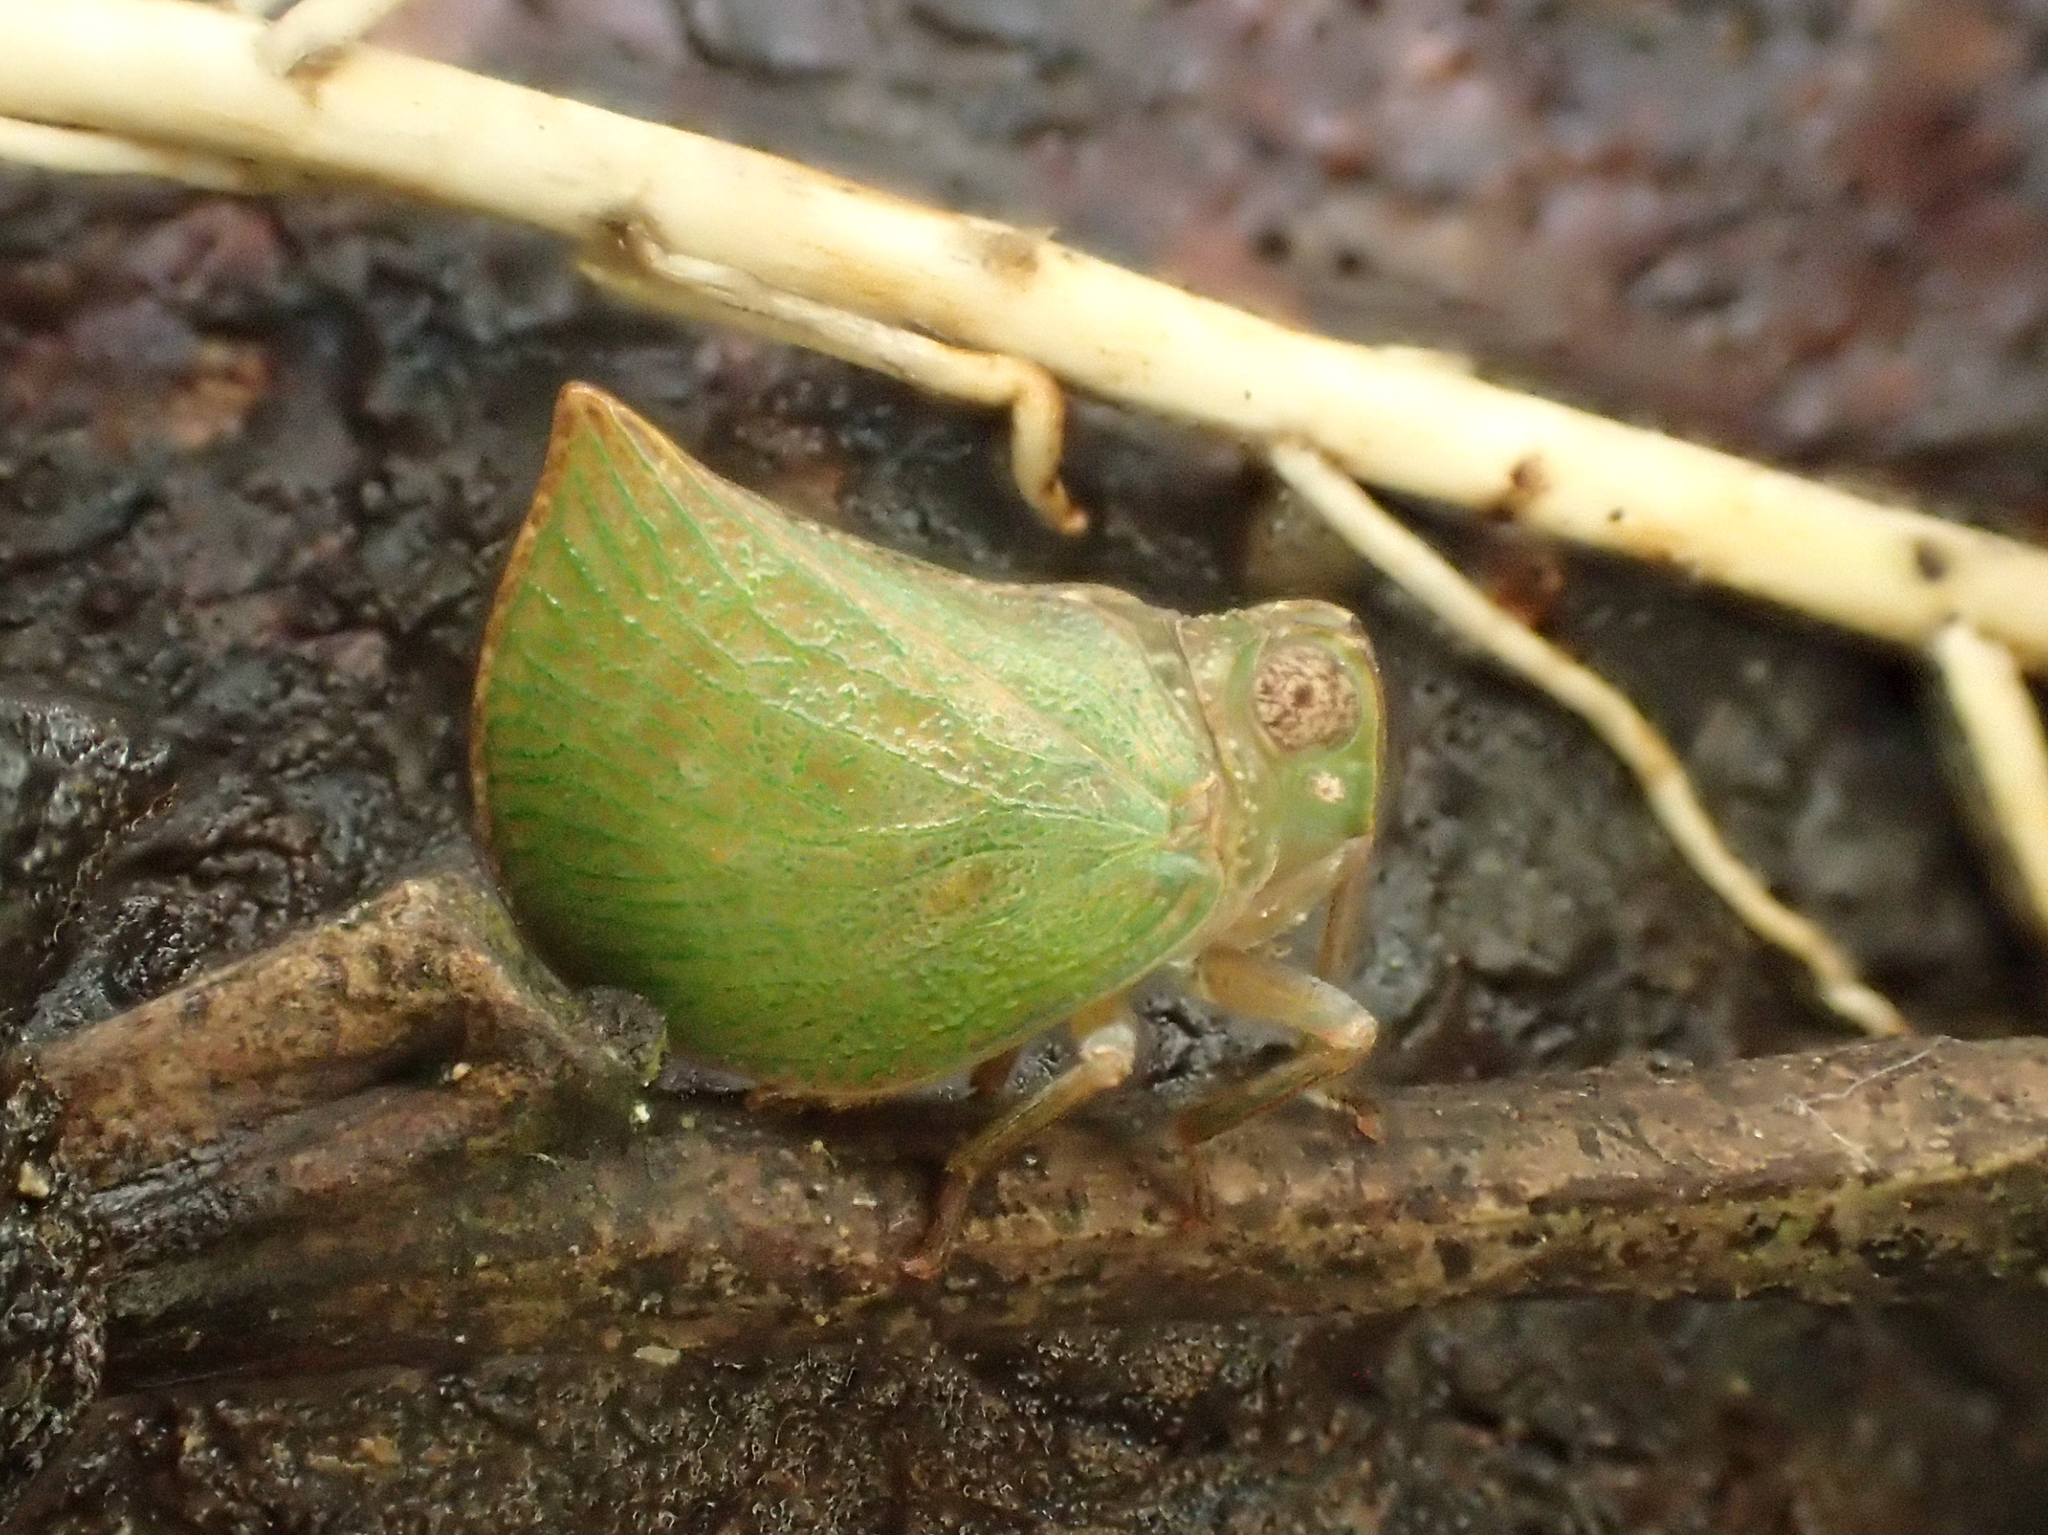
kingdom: Animalia
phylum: Arthropoda
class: Insecta
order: Hemiptera
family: Nogodinidae
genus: Cotylana
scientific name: Cotylana acutipennis
